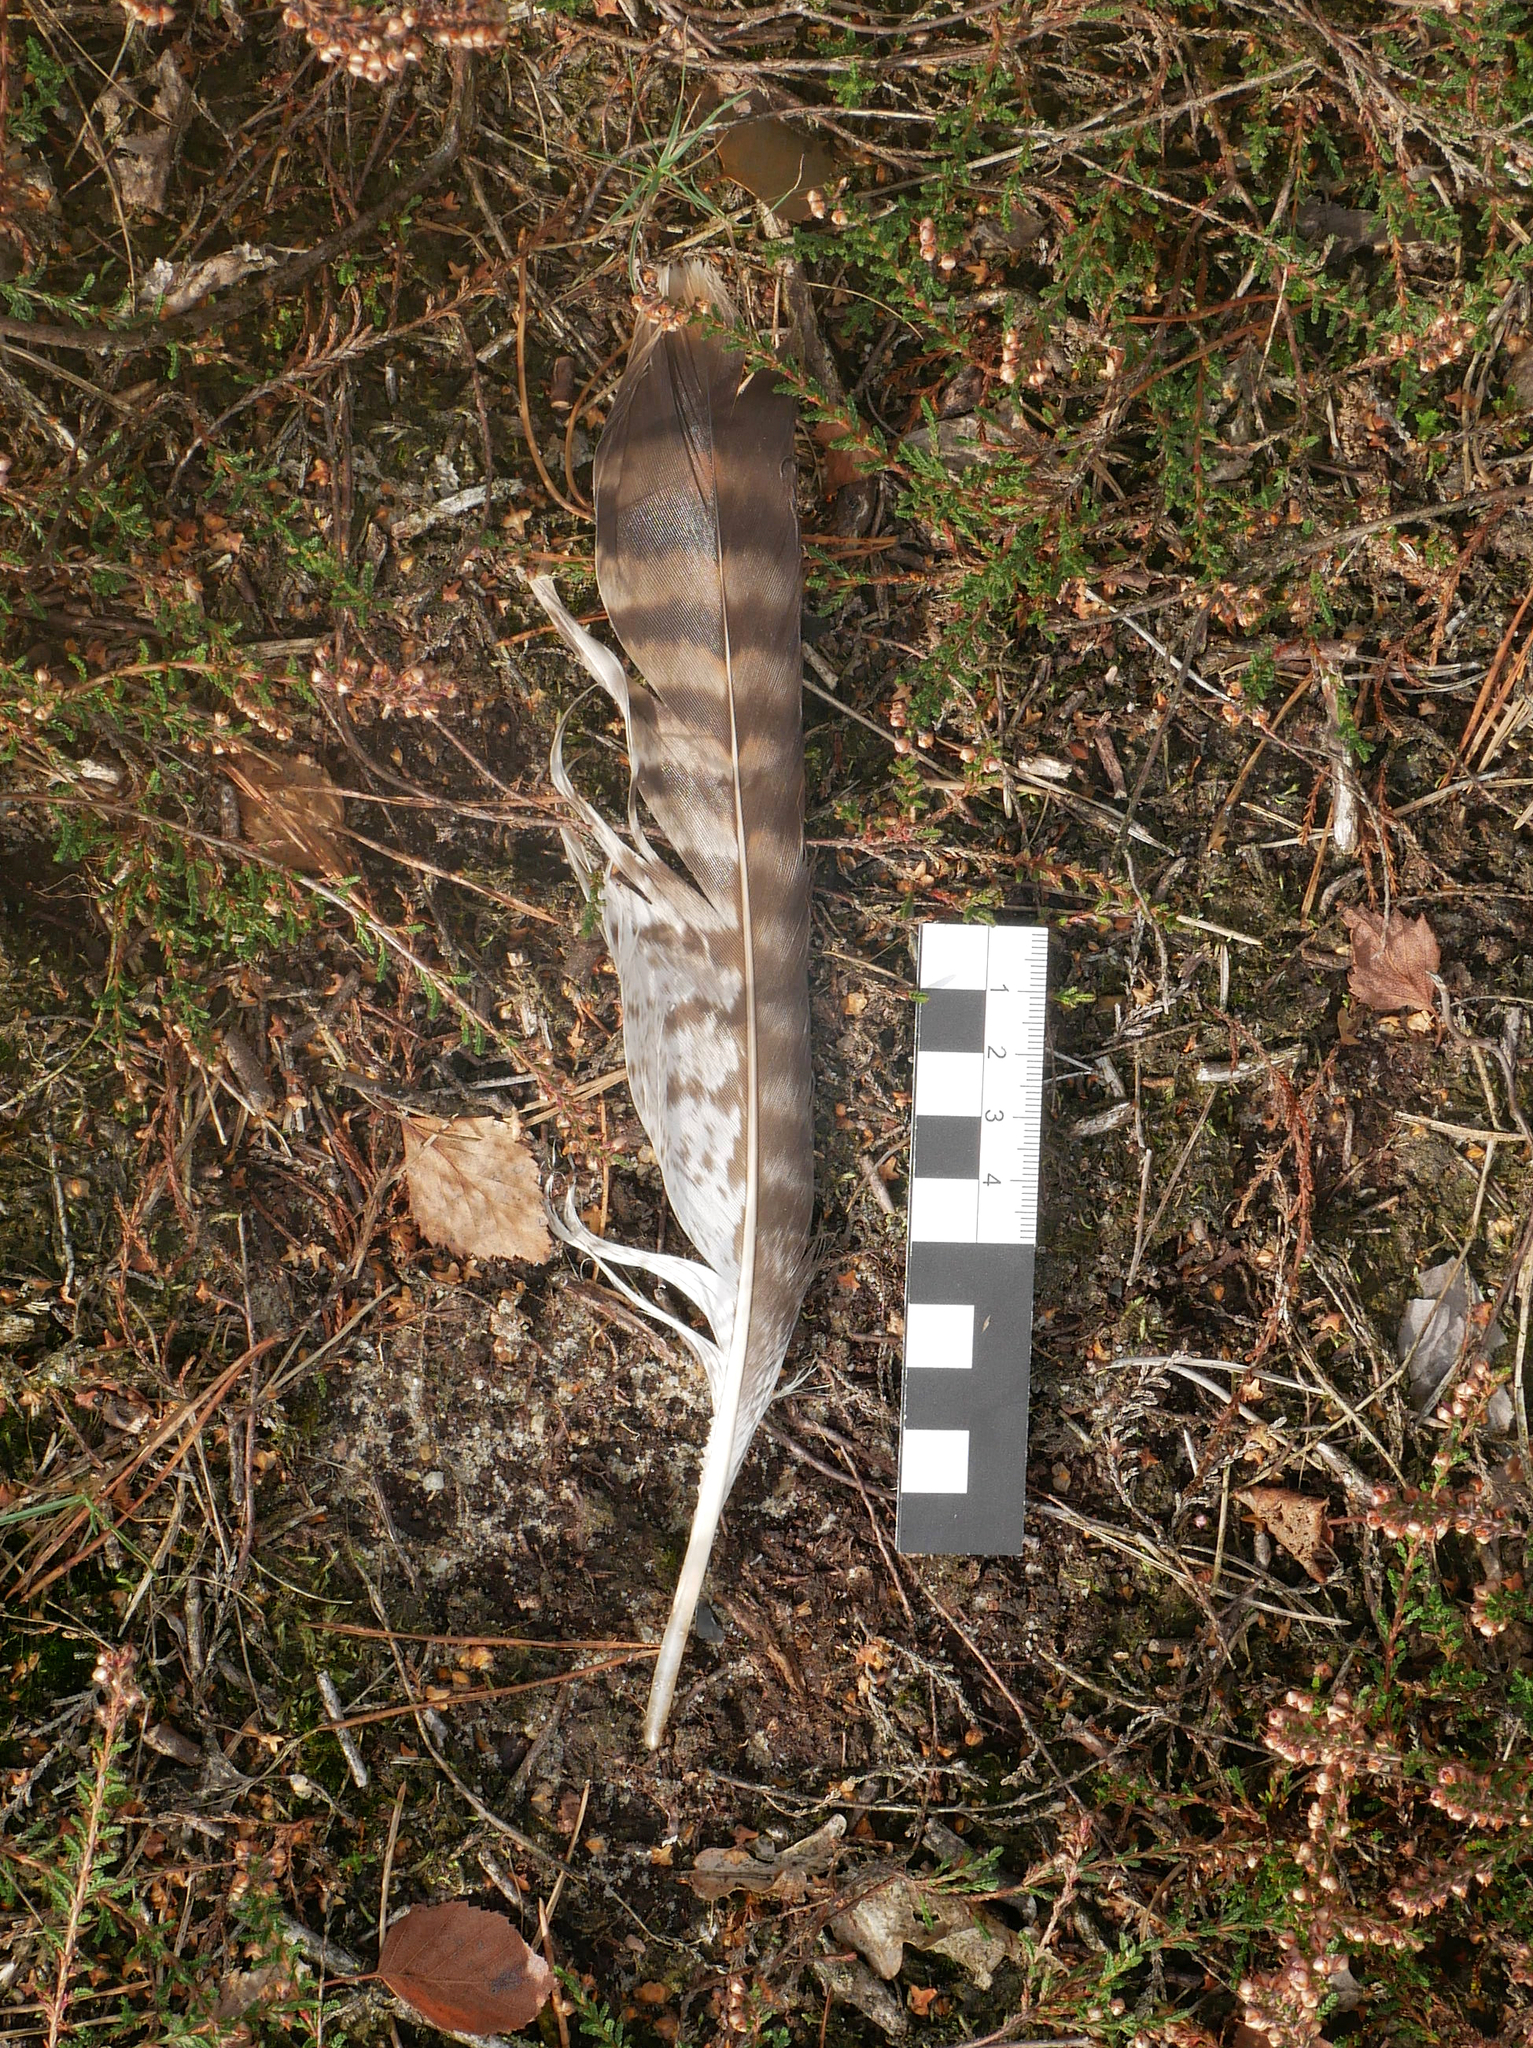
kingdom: Animalia
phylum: Chordata
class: Aves
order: Accipitriformes
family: Accipitridae
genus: Buteo
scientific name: Buteo buteo
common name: Common buzzard
